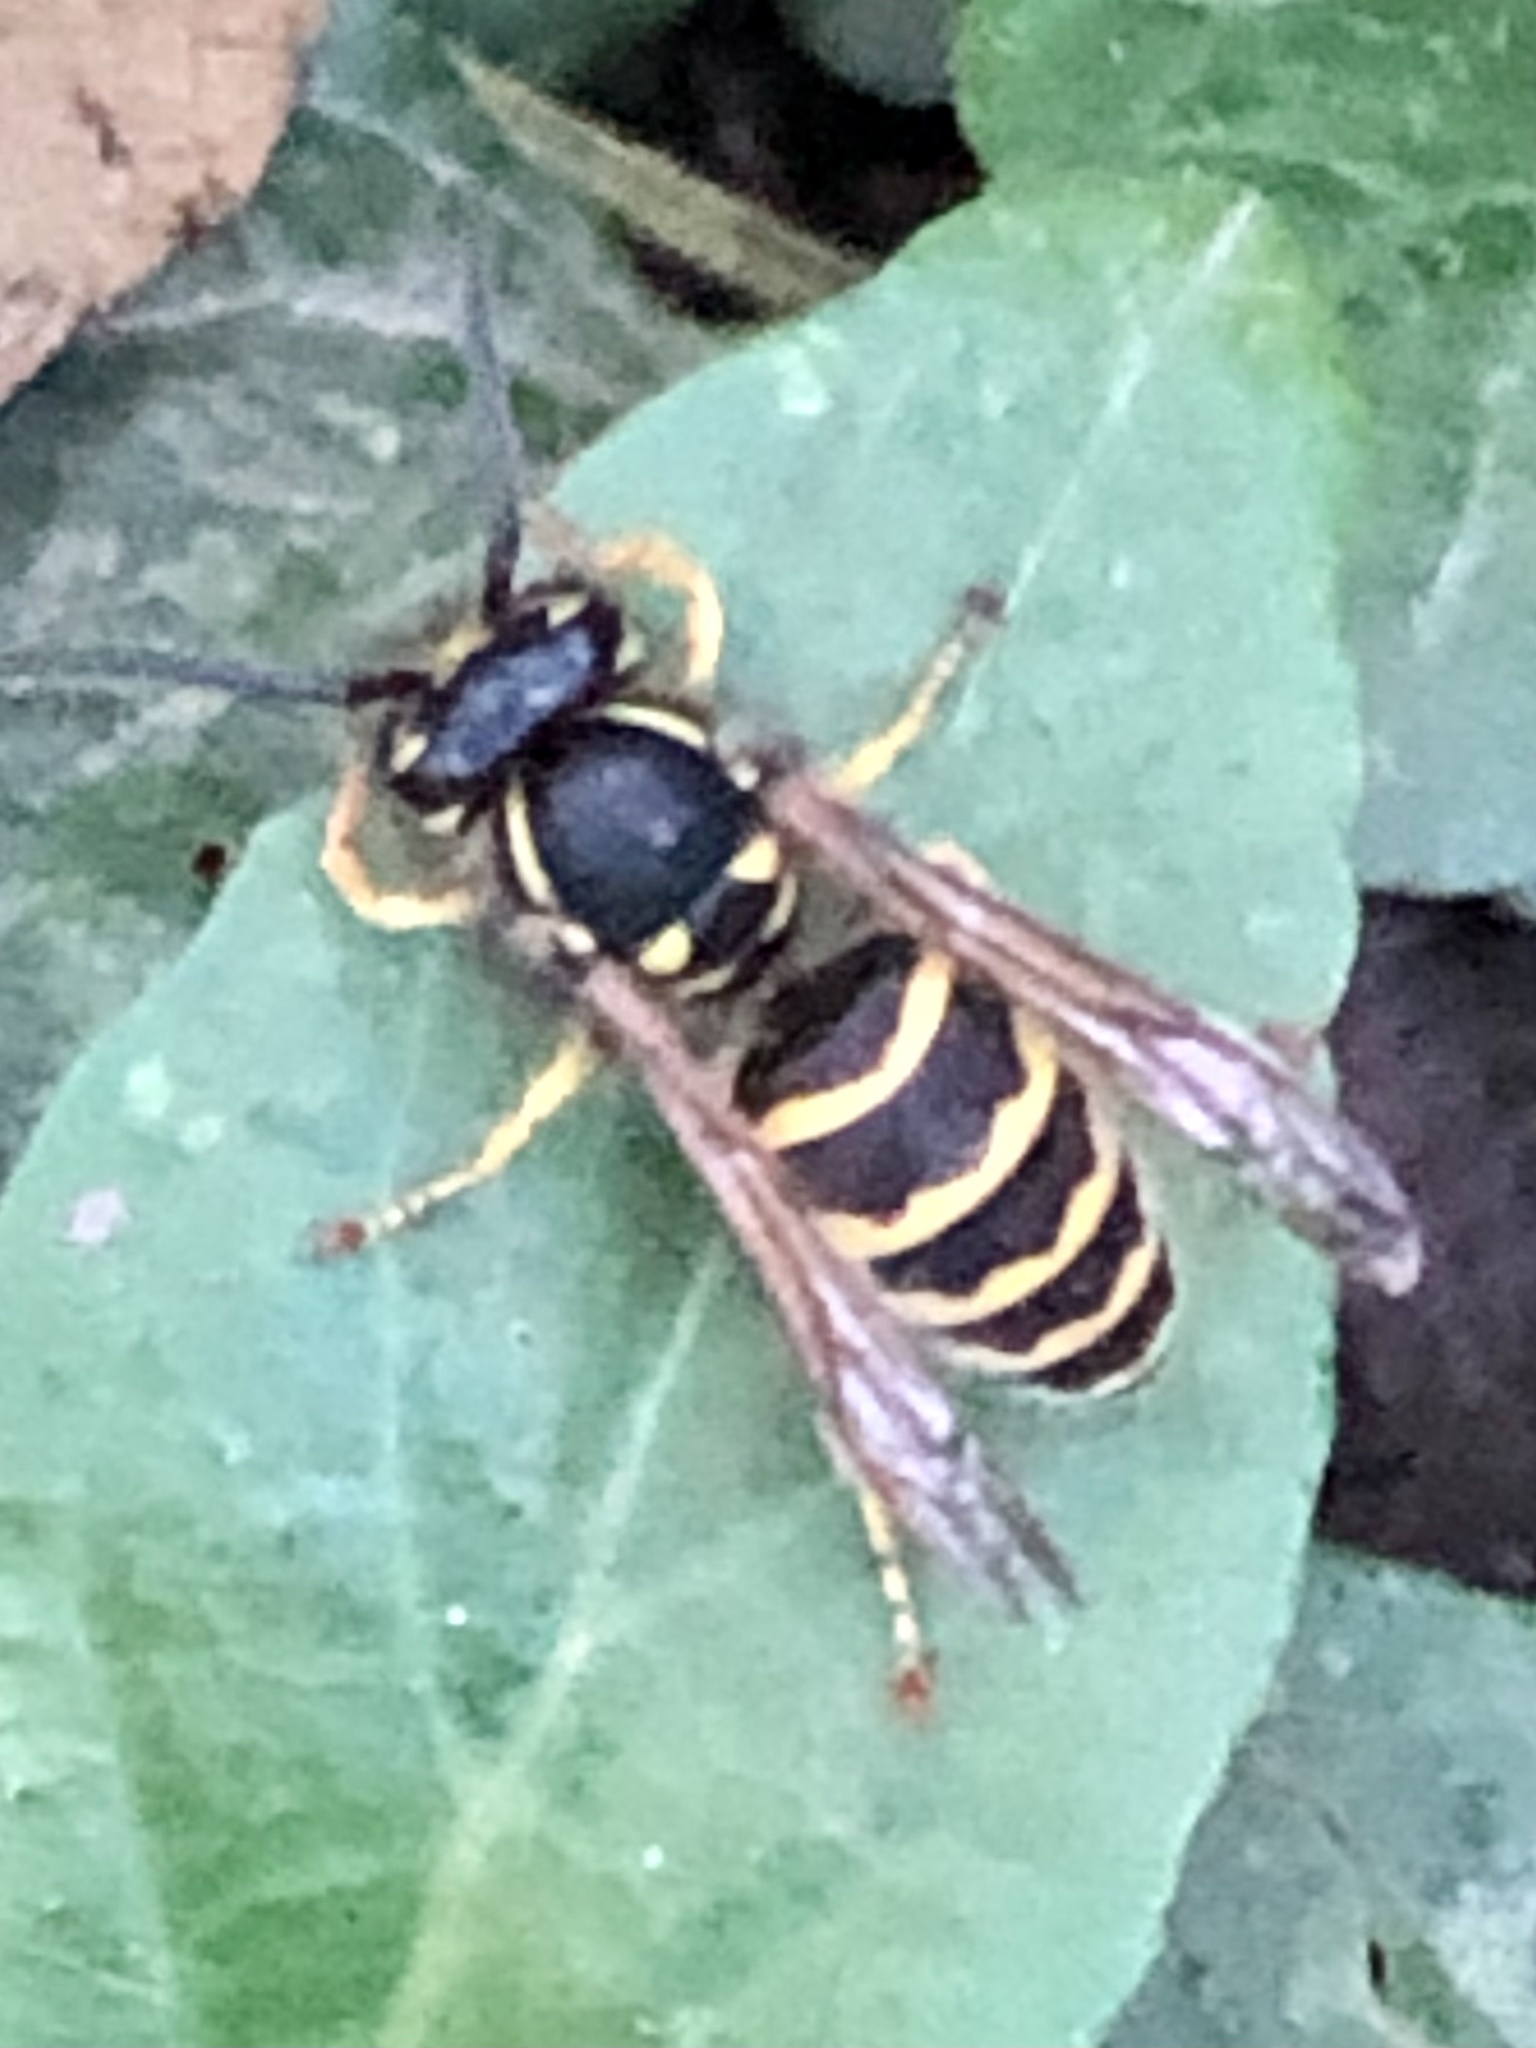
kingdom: Animalia
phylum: Arthropoda
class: Insecta
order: Hymenoptera
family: Vespidae
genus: Vespula
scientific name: Vespula alascensis
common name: Alaska yellowjacket
